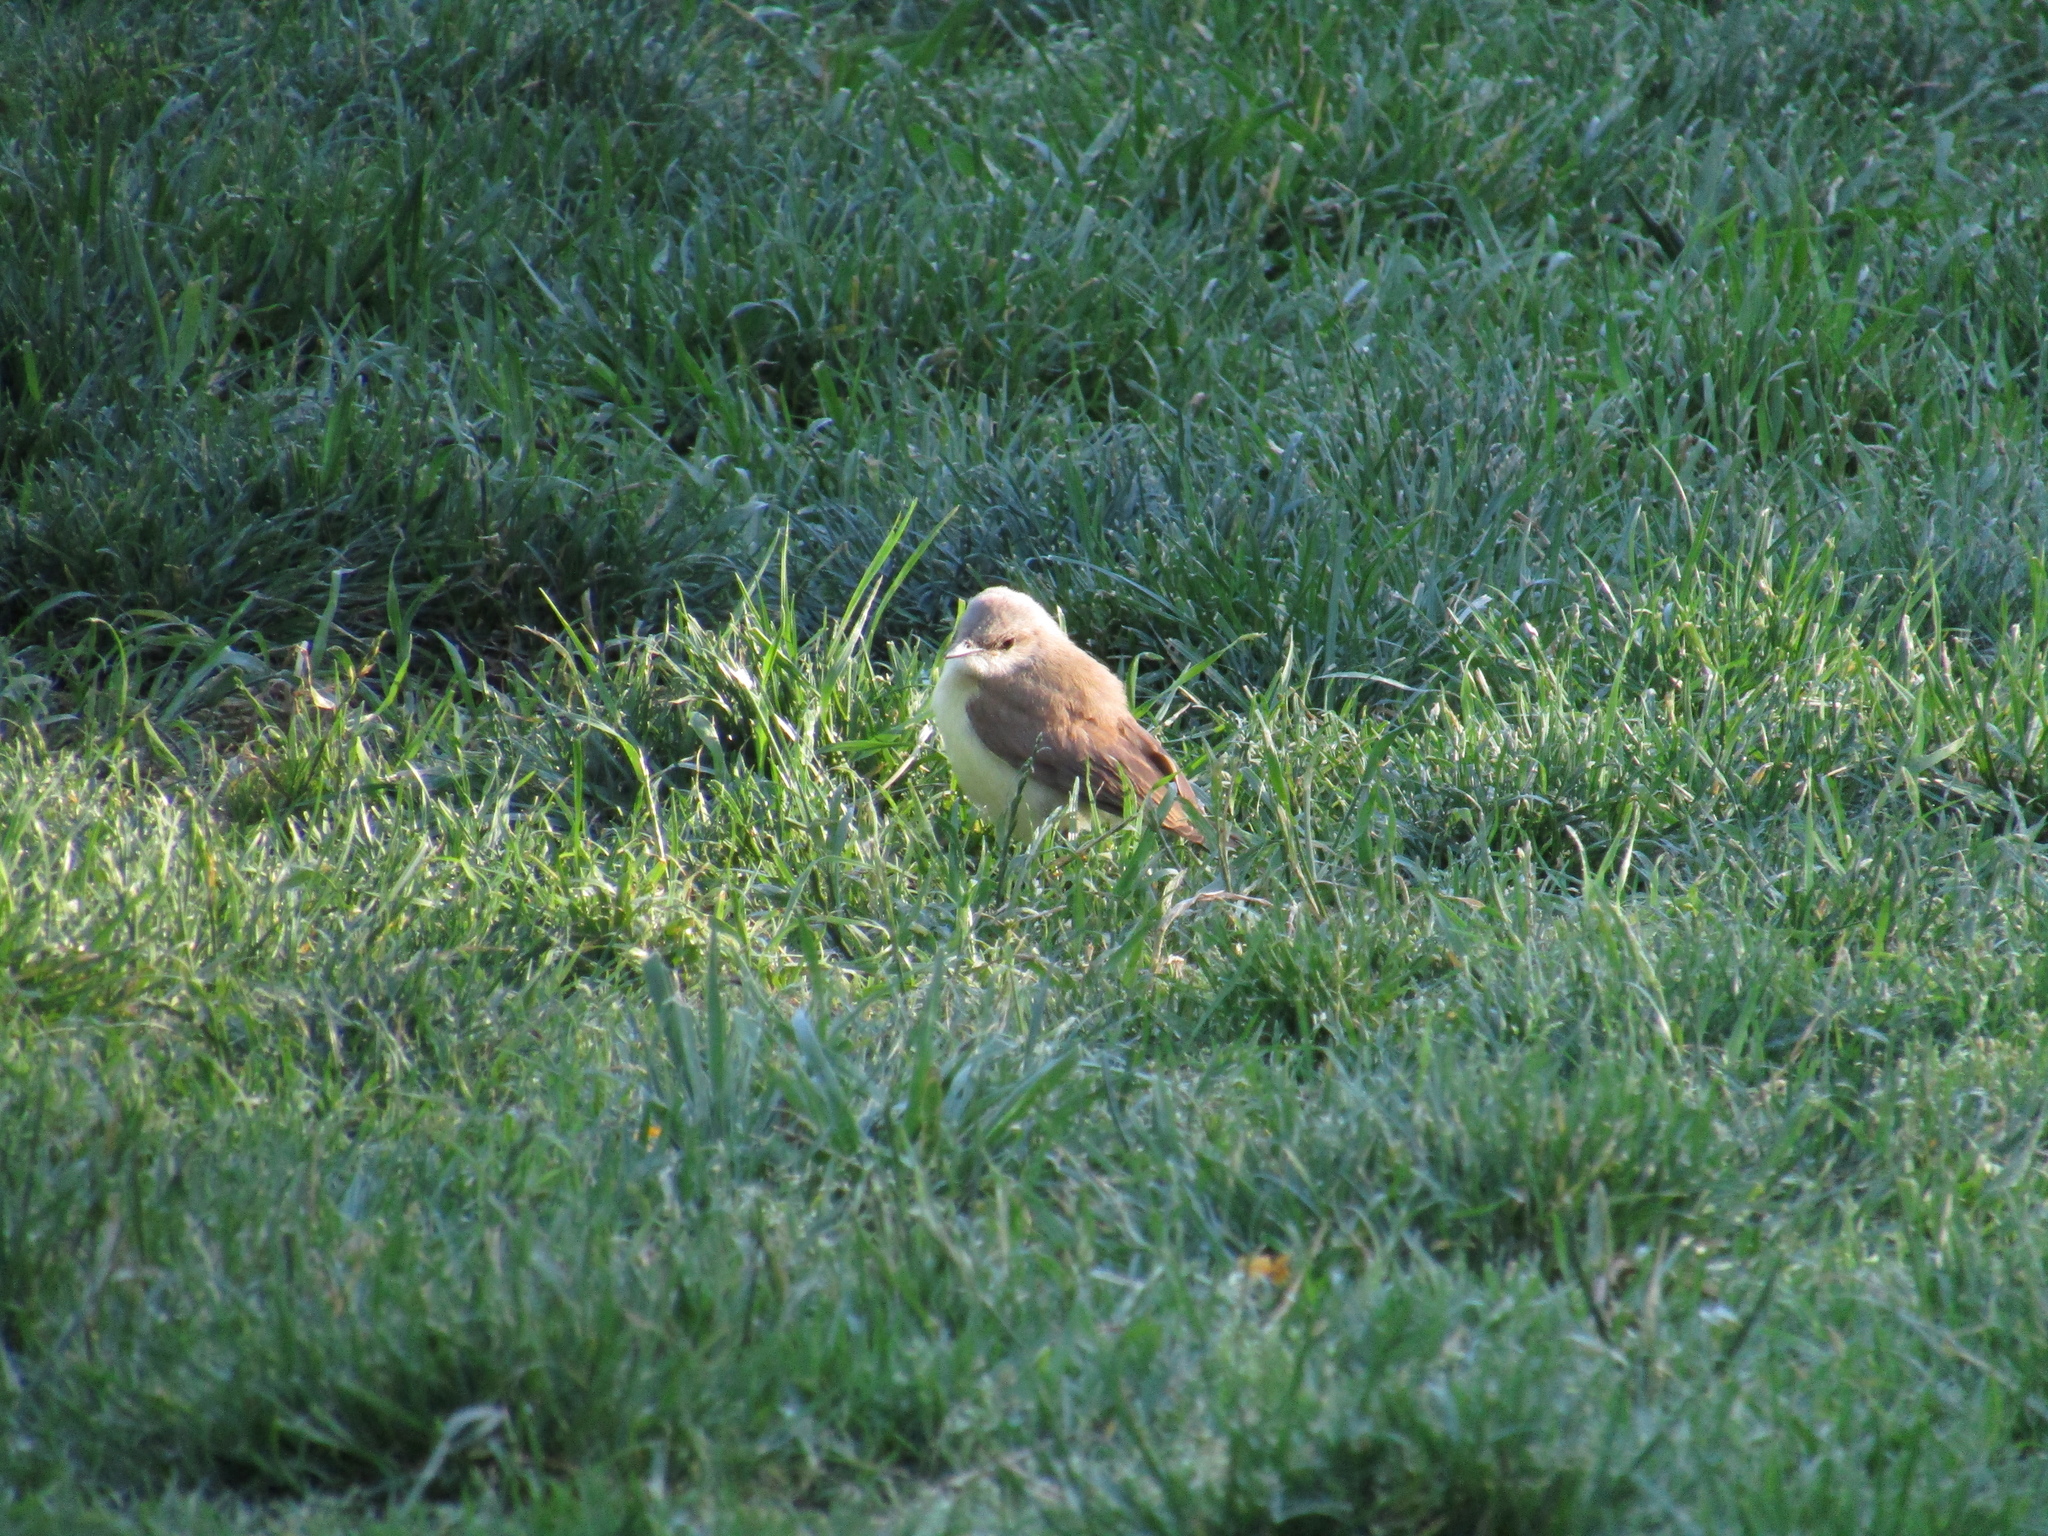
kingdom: Animalia
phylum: Chordata
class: Aves
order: Passeriformes
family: Tyrannidae
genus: Machetornis
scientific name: Machetornis rixosa
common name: Cattle tyrant
